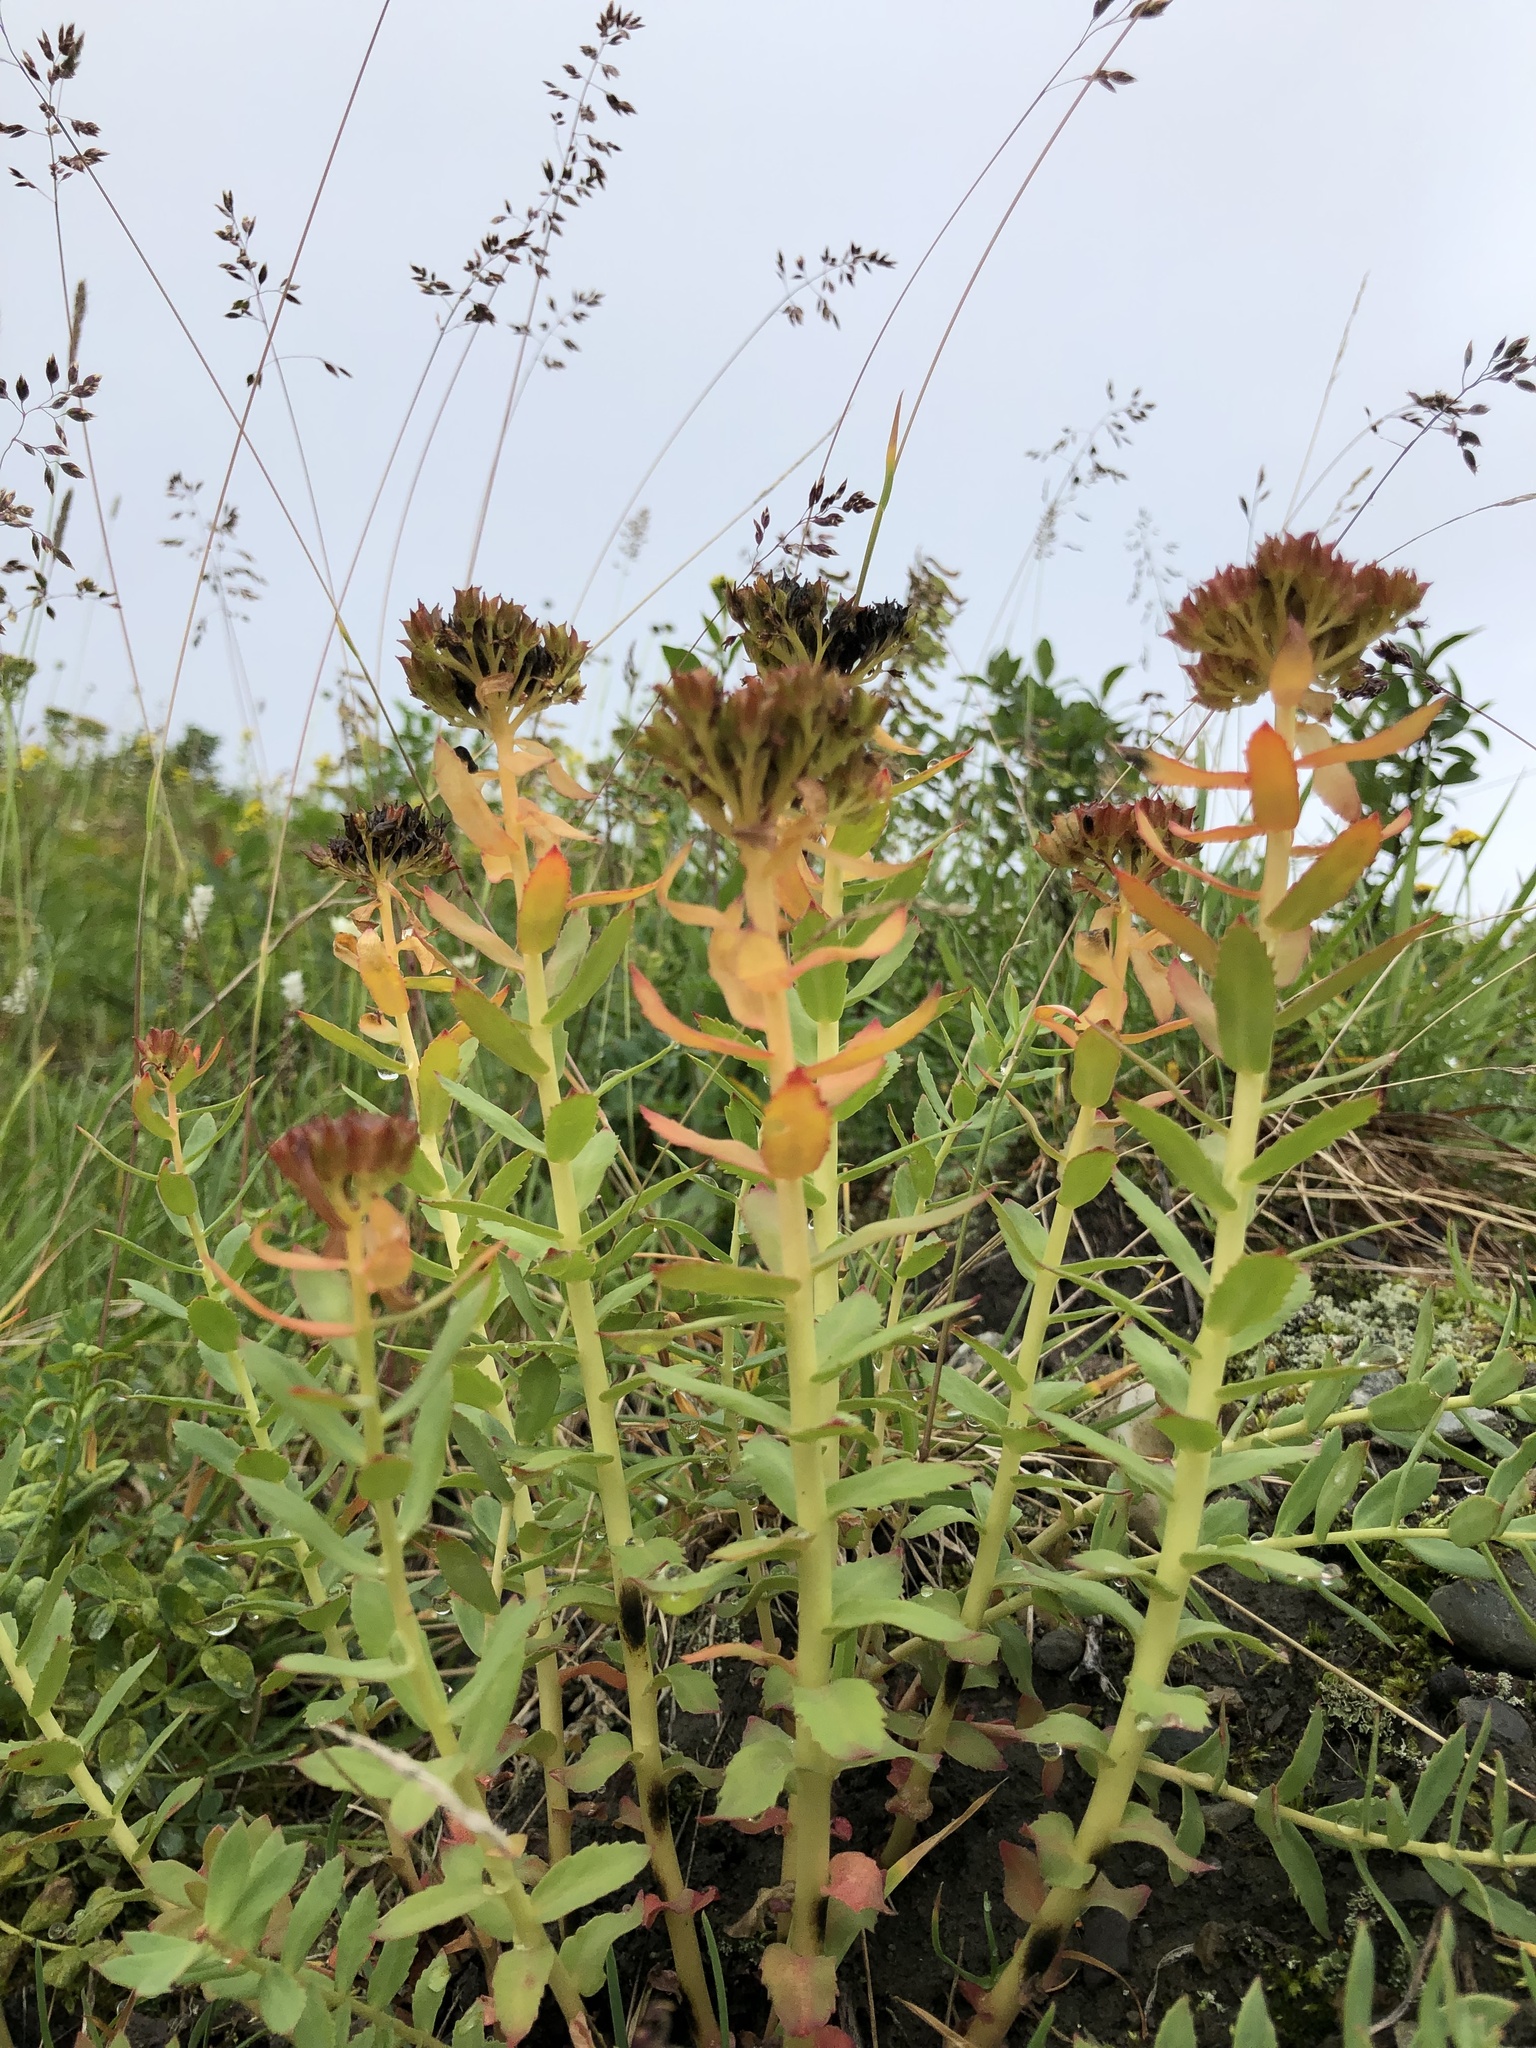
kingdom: Plantae
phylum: Tracheophyta
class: Magnoliopsida
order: Saxifragales
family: Crassulaceae
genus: Rhodiola
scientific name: Rhodiola rosea
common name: Roseroot
